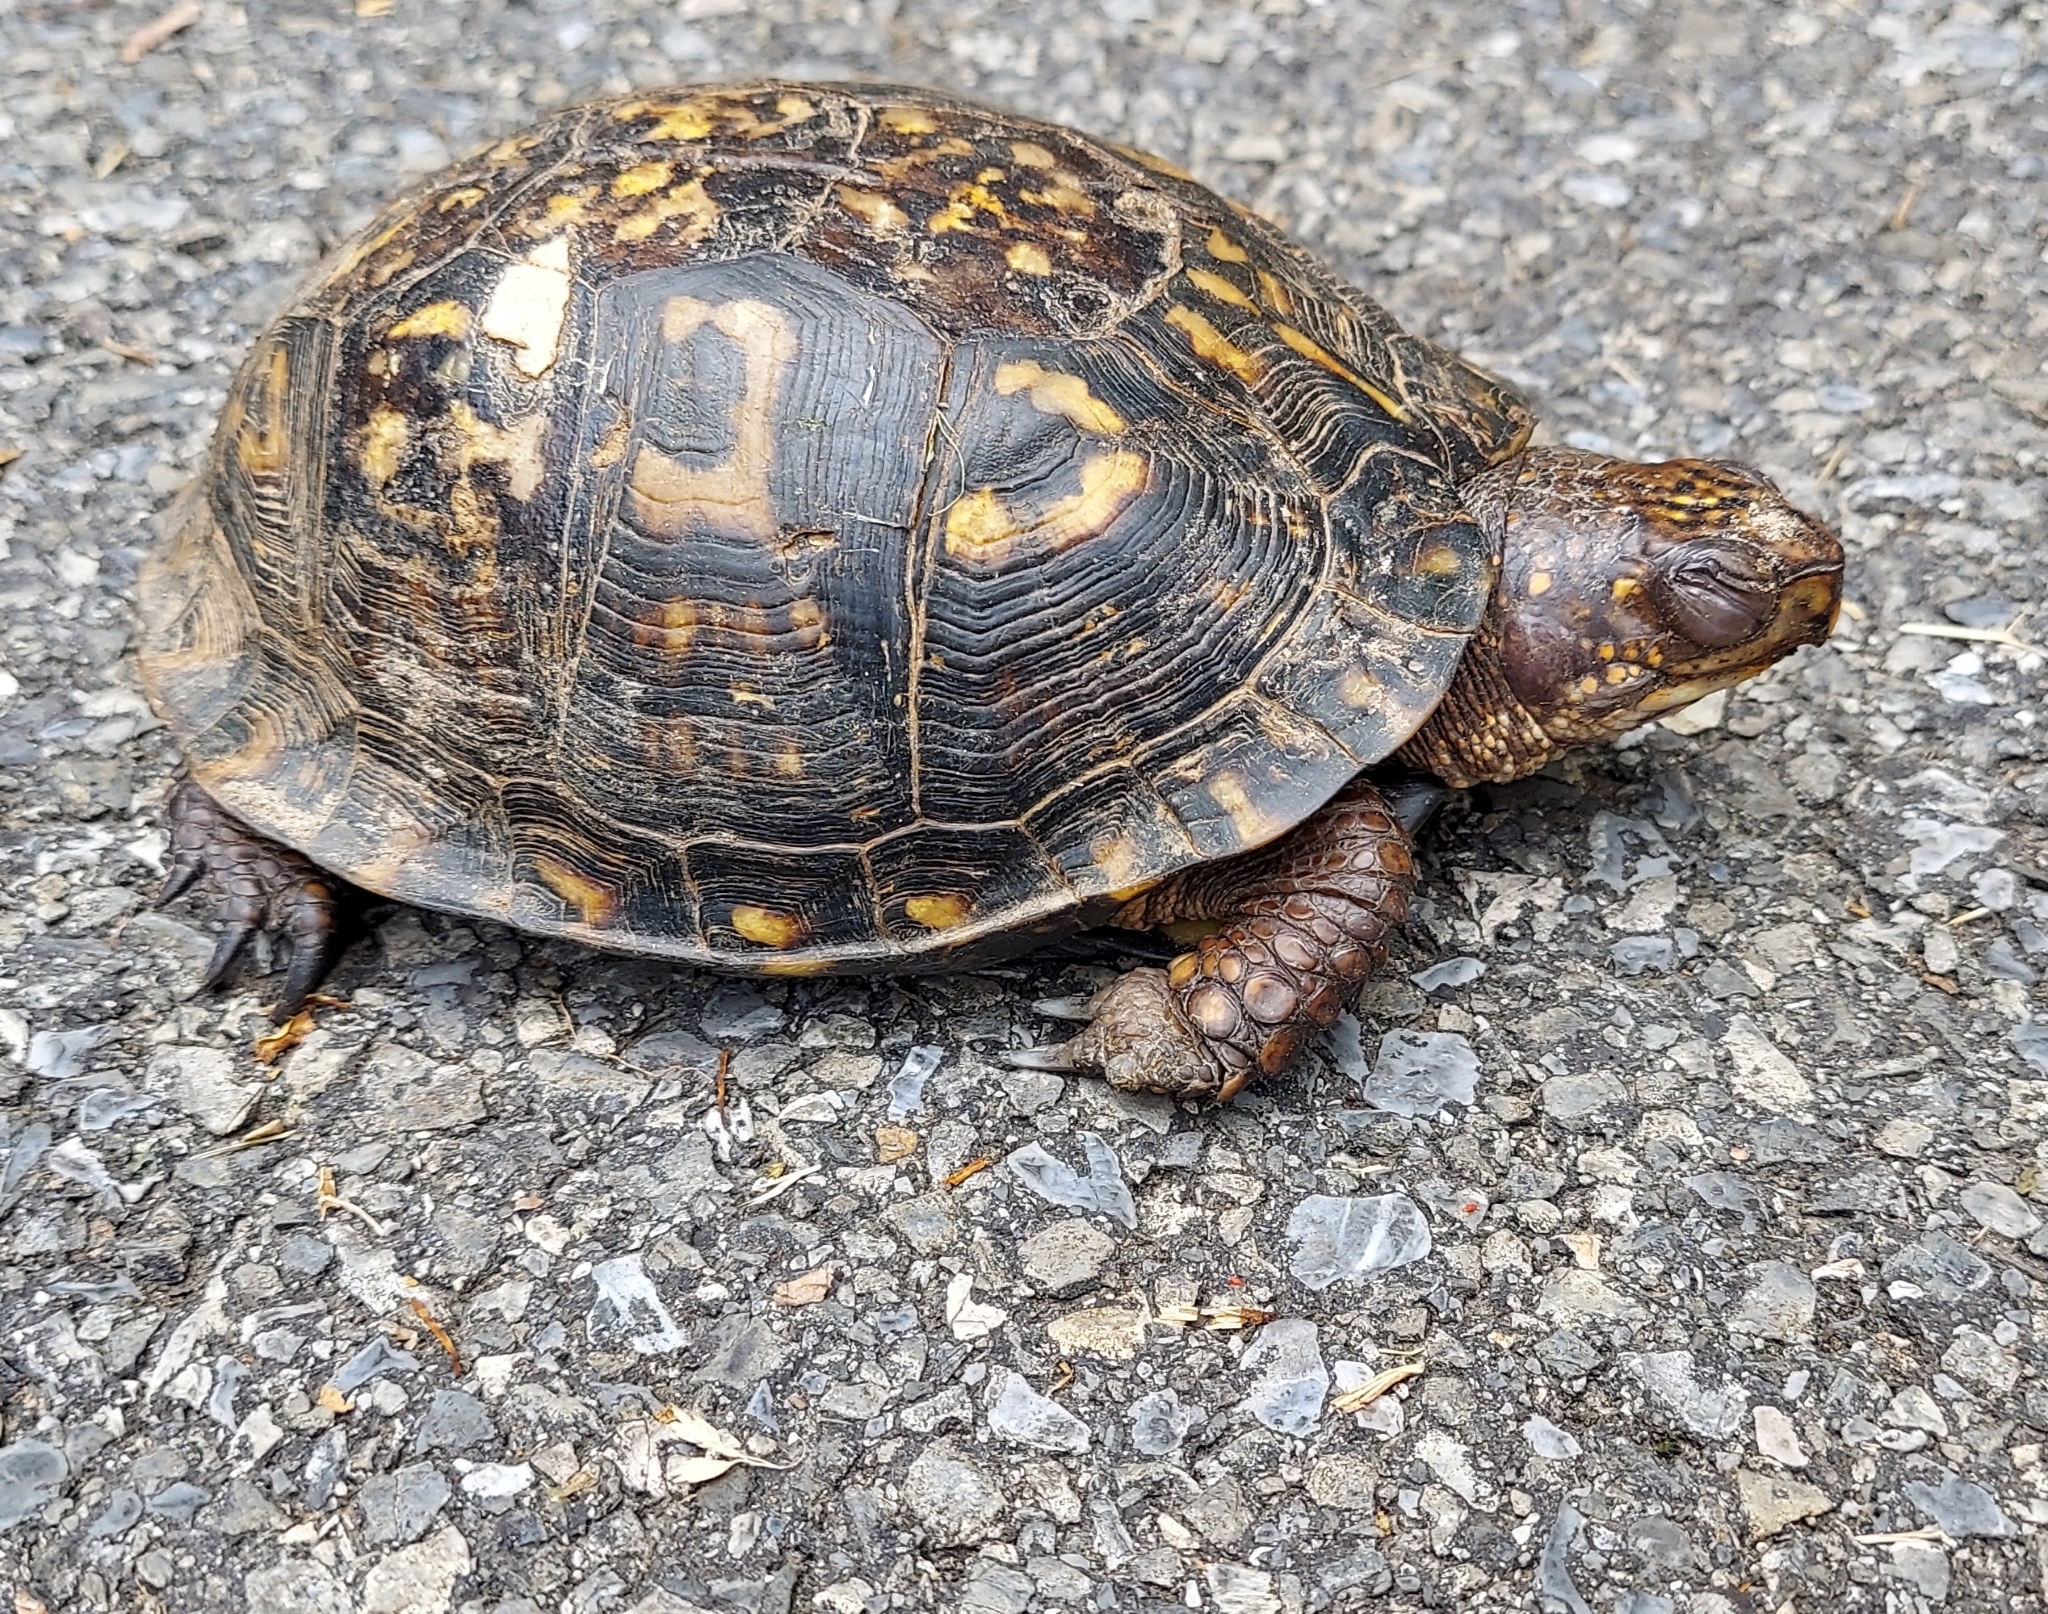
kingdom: Animalia
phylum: Chordata
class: Testudines
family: Emydidae
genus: Terrapene
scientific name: Terrapene carolina
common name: Common box turtle
